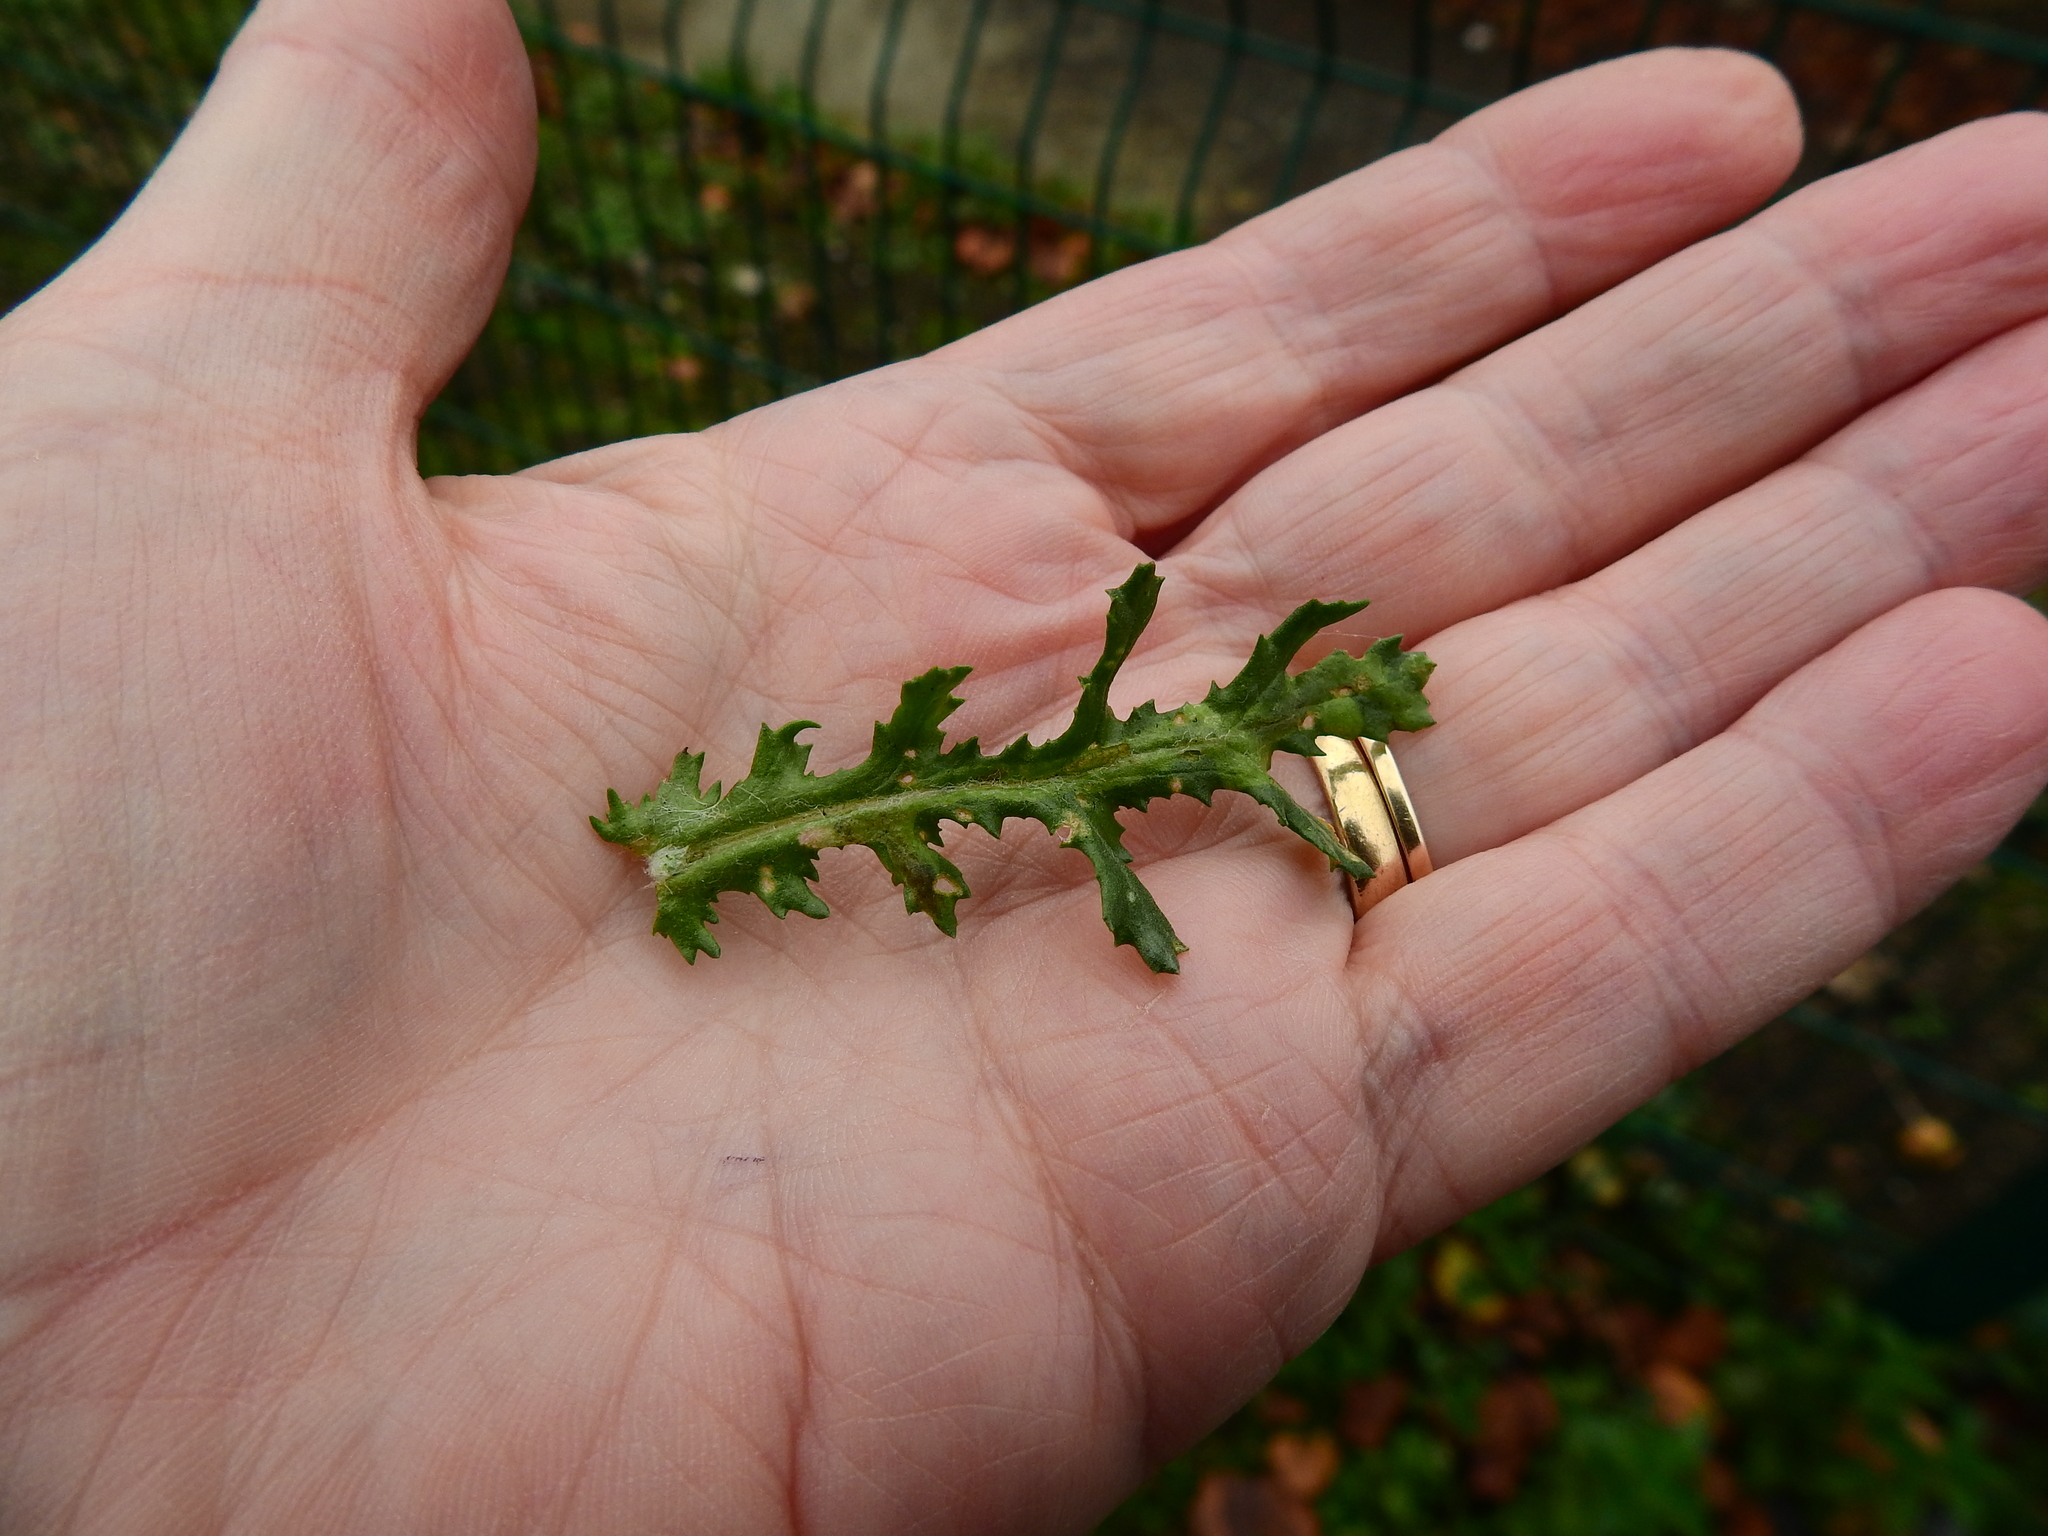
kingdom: Animalia
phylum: Arthropoda
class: Insecta
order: Diptera
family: Tephritidae
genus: Trypeta
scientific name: Trypeta zoe
